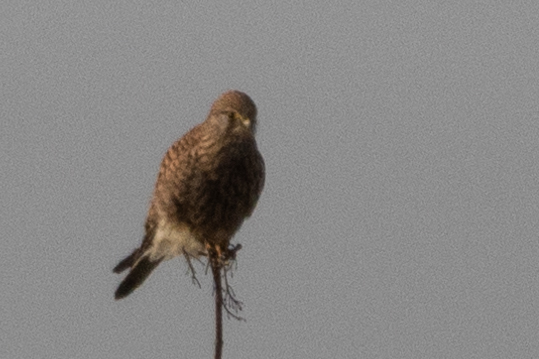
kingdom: Animalia
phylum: Chordata
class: Aves
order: Falconiformes
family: Falconidae
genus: Falco
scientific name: Falco tinnunculus
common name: Common kestrel
